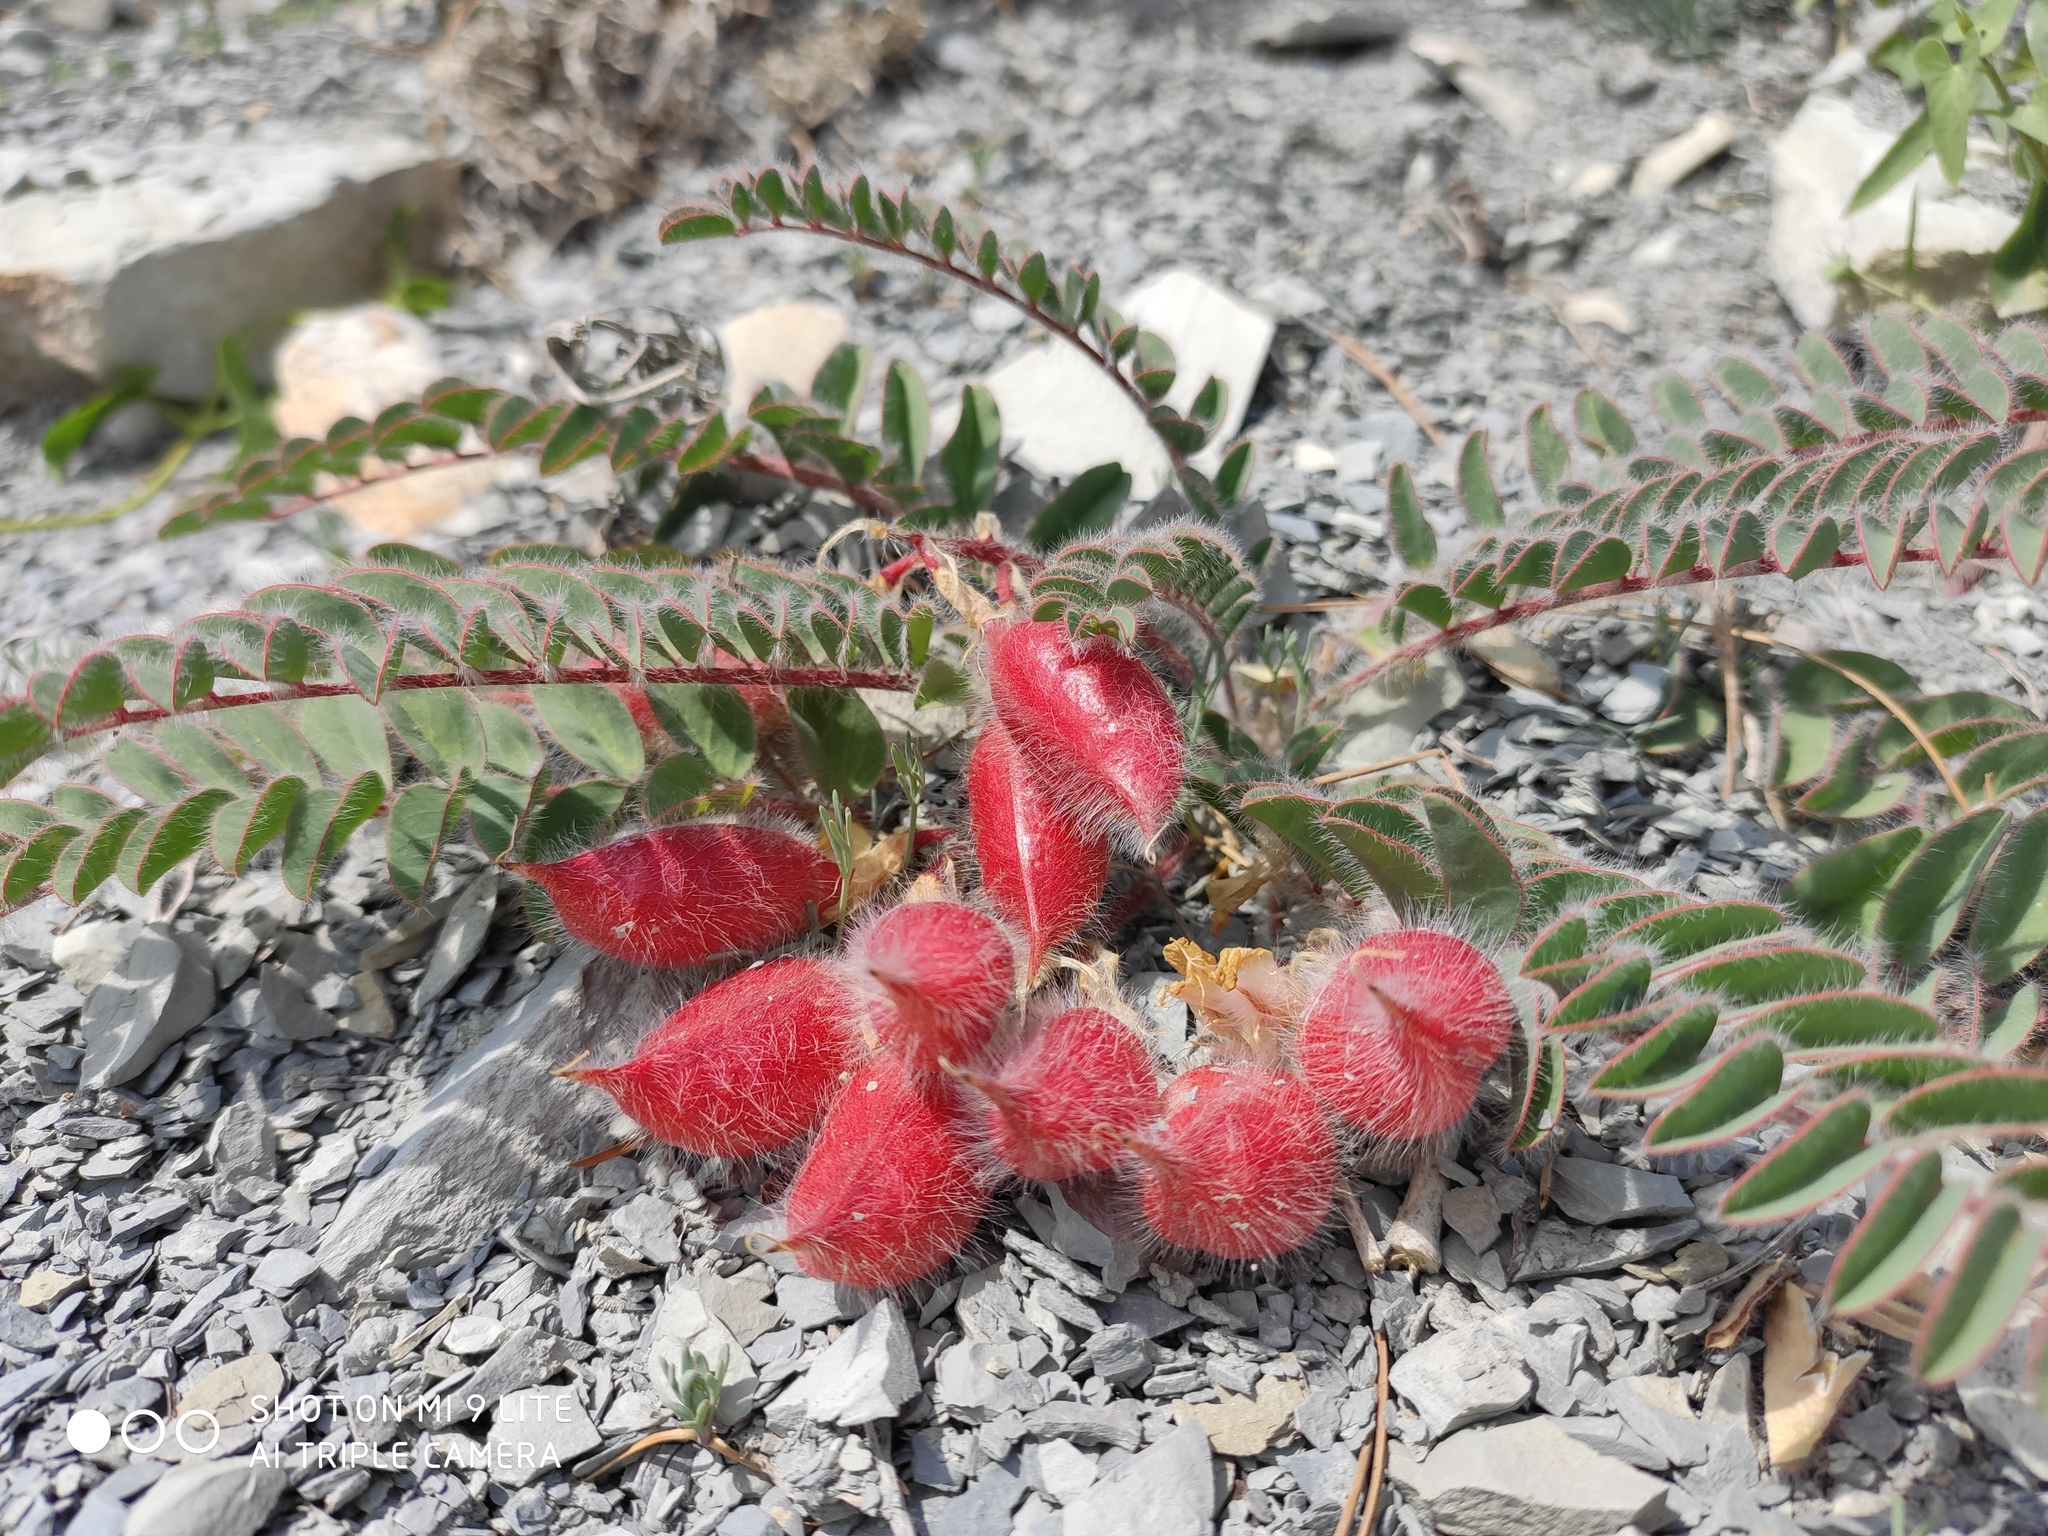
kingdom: Plantae
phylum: Tracheophyta
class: Magnoliopsida
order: Fabales
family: Fabaceae
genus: Astragalus
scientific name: Astragalus utriger
